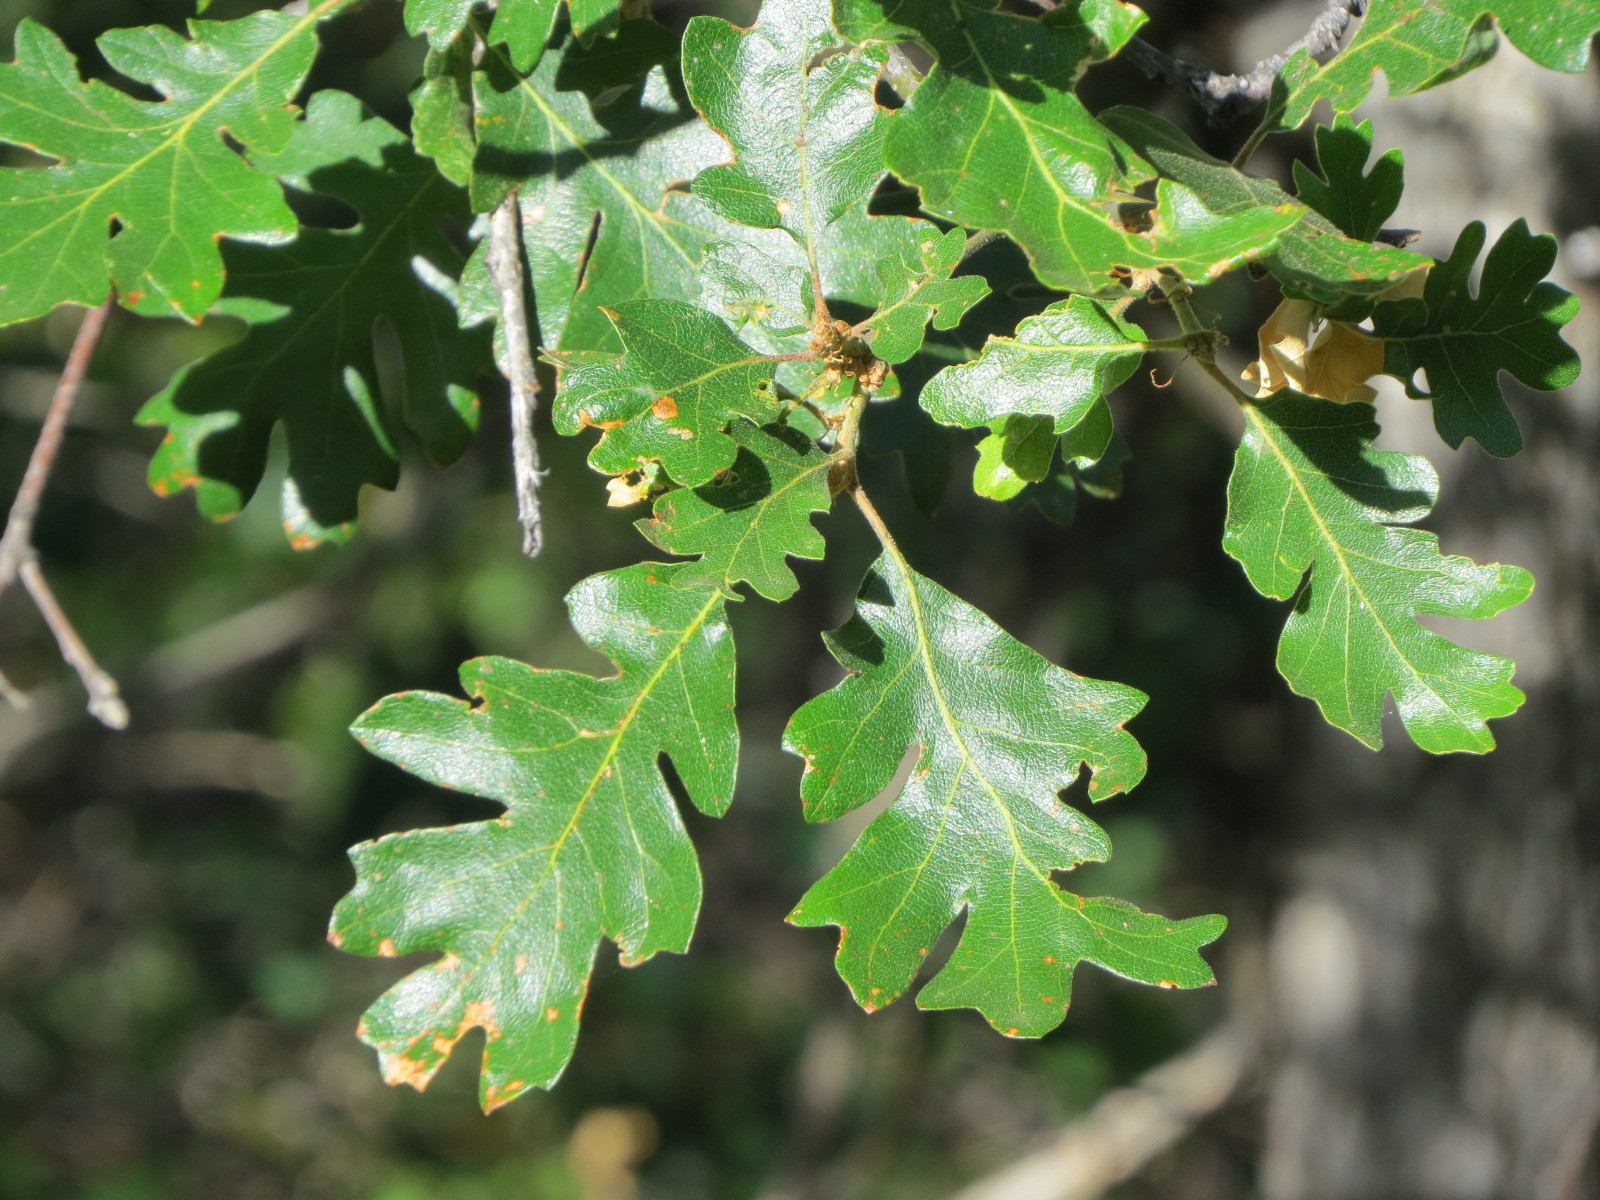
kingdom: Plantae
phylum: Tracheophyta
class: Magnoliopsida
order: Fagales
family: Fagaceae
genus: Quercus
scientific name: Quercus garryana
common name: Garry oak
